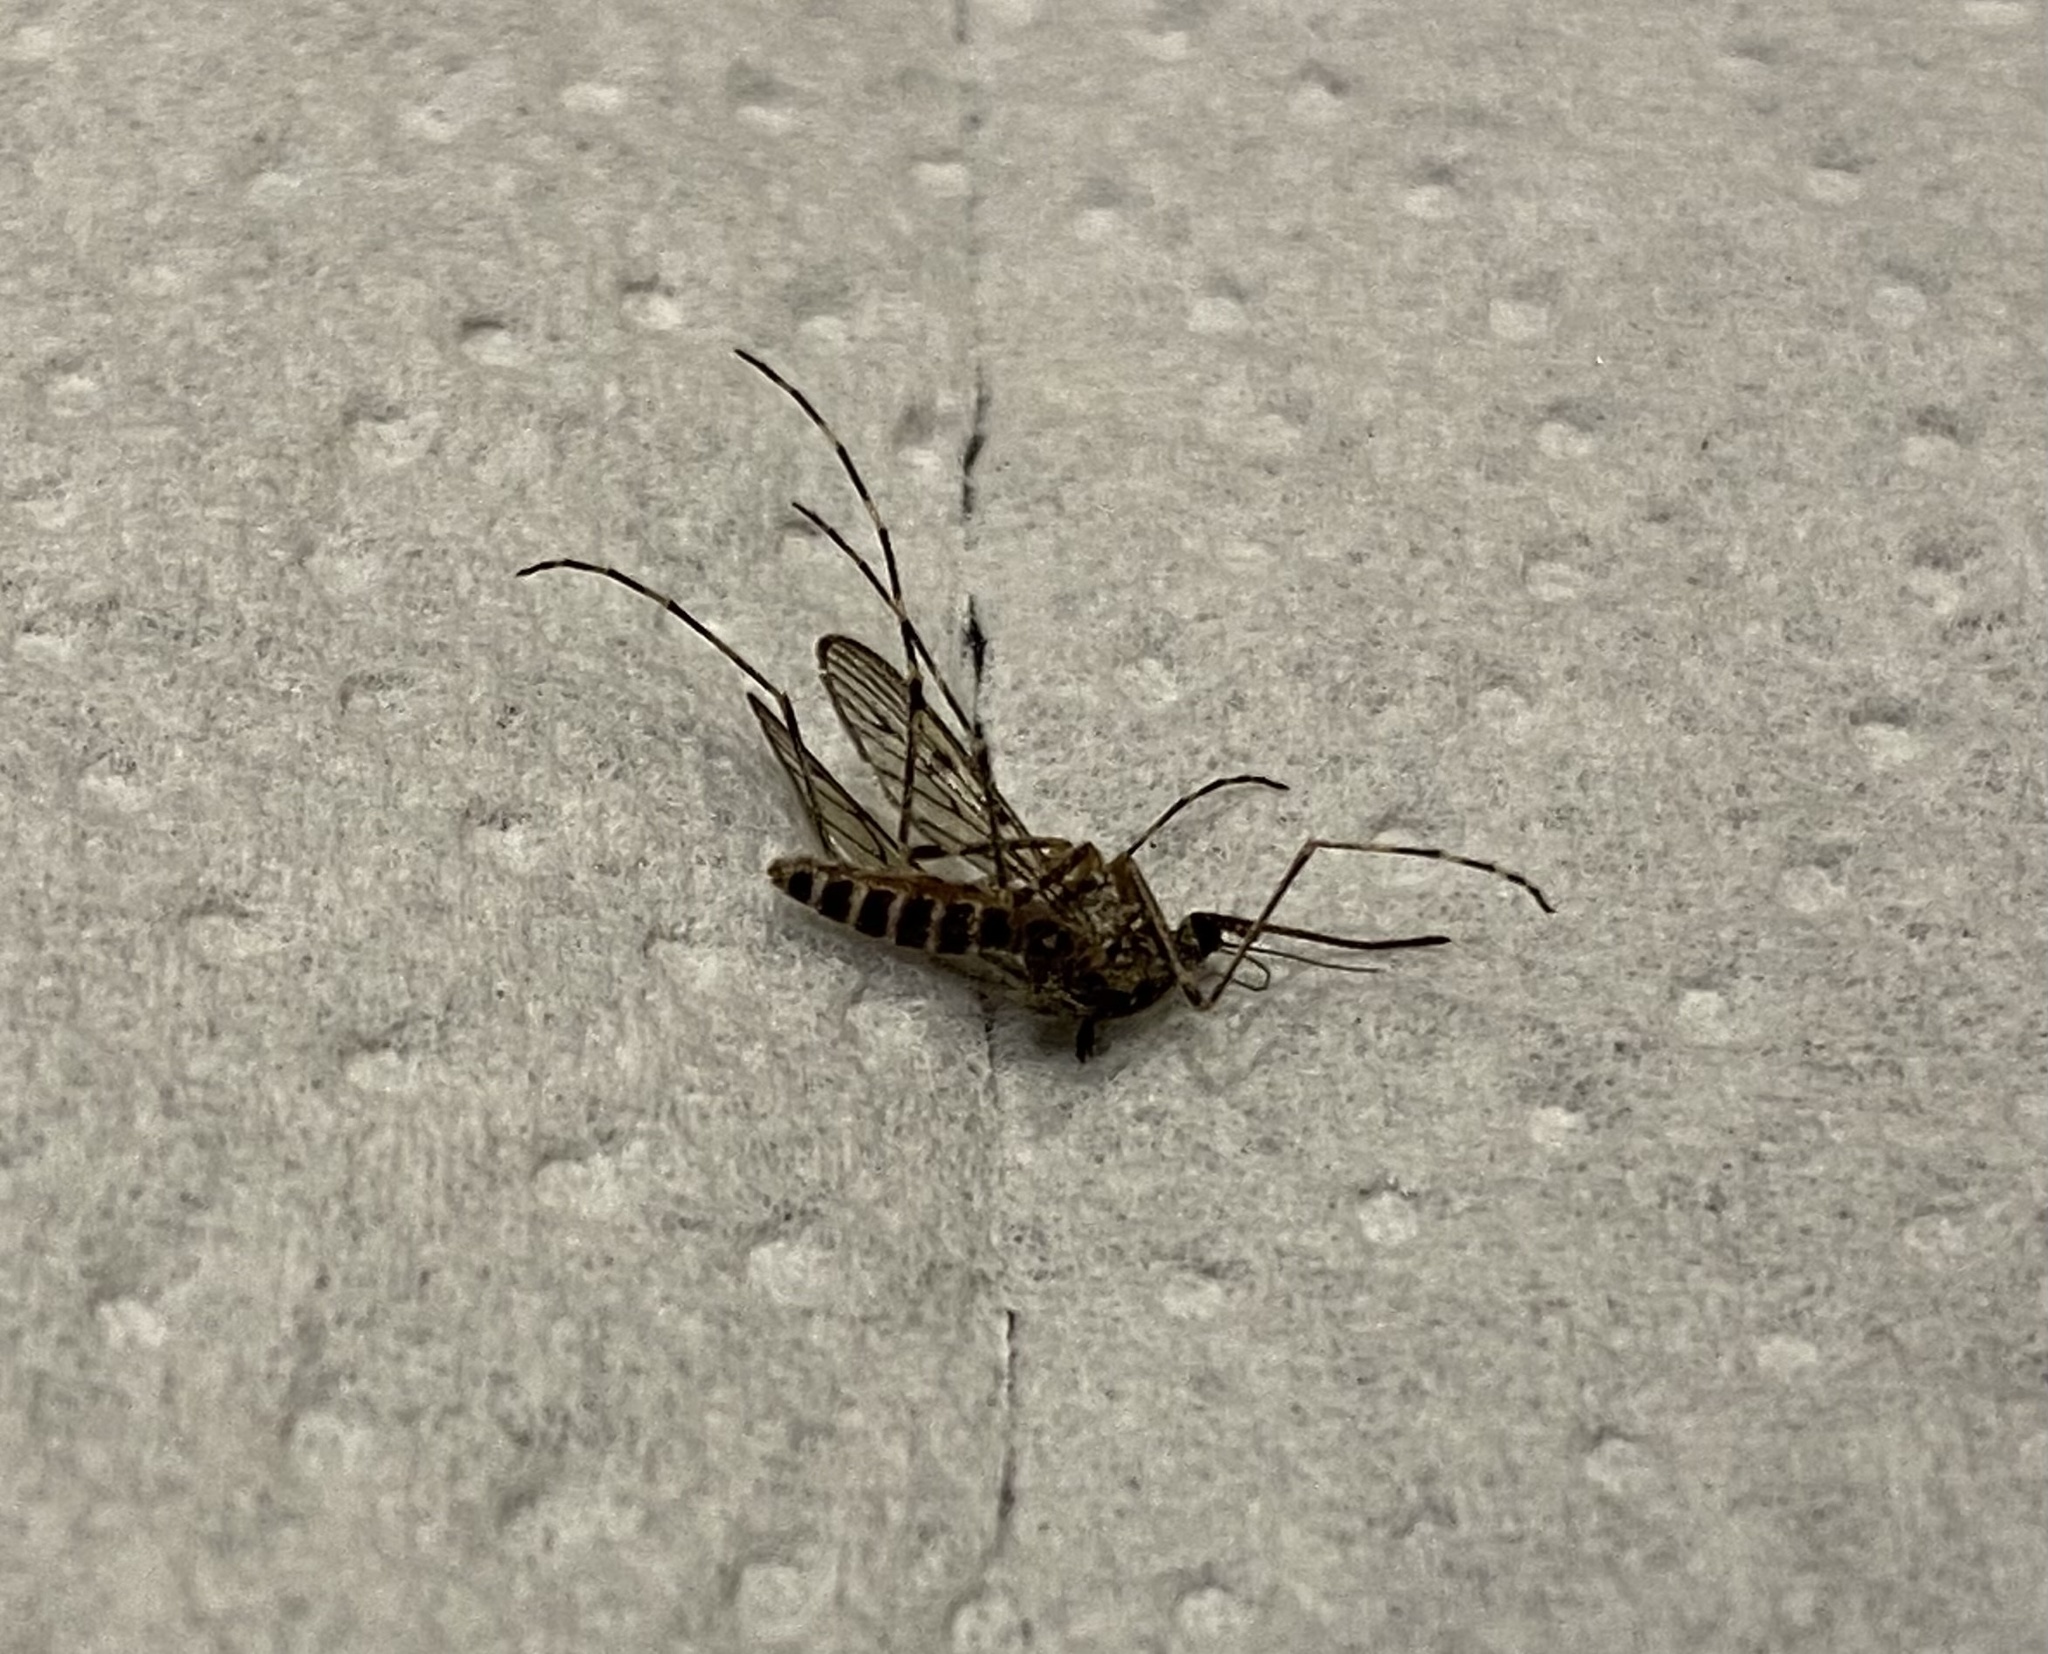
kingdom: Animalia
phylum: Arthropoda
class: Insecta
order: Diptera
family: Culicidae
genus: Culiseta
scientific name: Culiseta annulata
